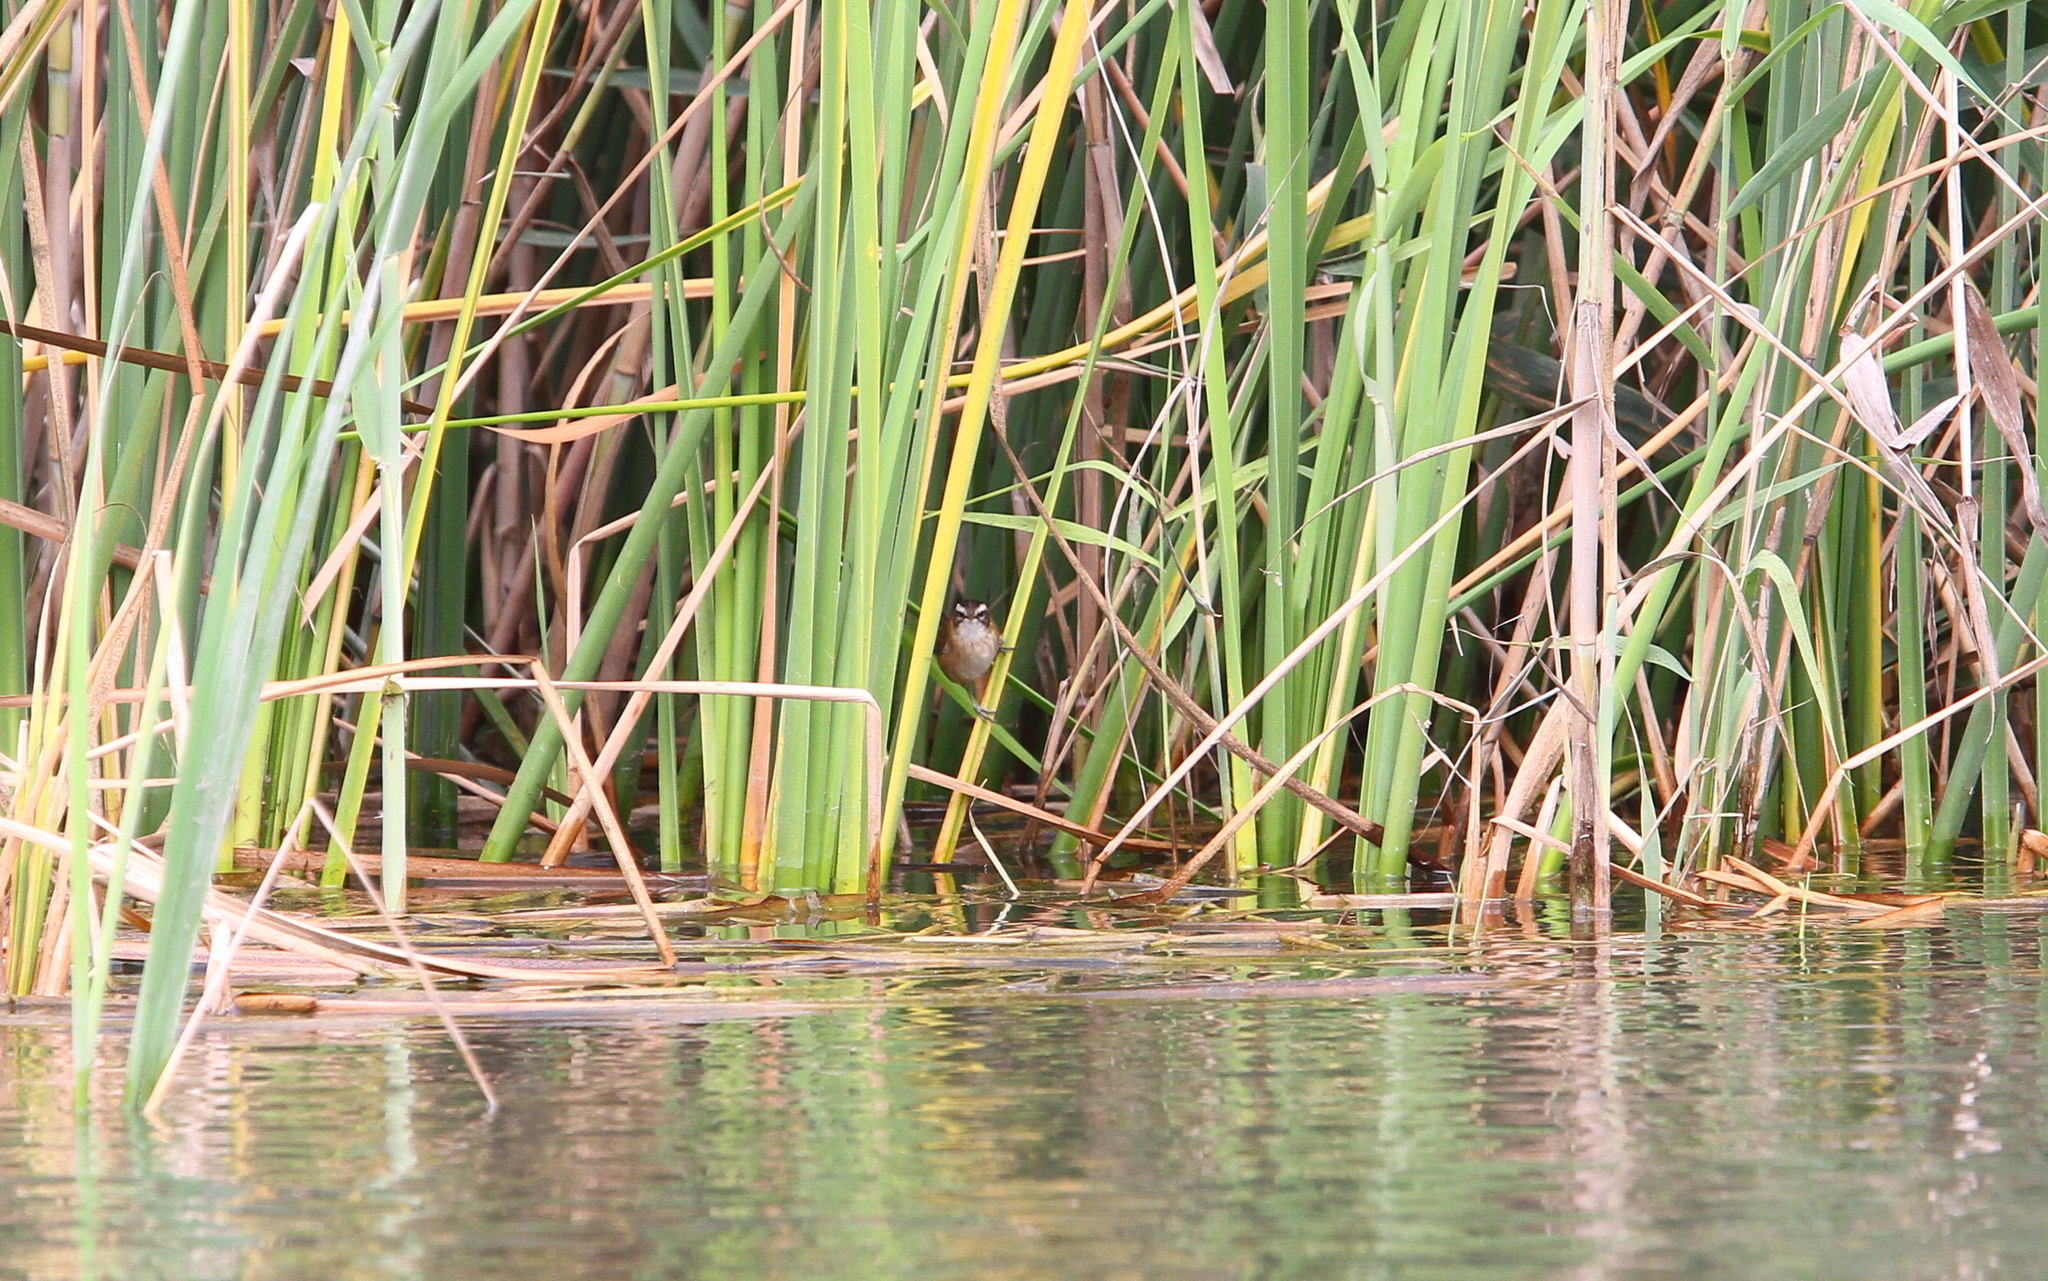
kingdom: Animalia
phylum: Chordata
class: Aves
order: Passeriformes
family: Acrocephalidae
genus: Acrocephalus
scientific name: Acrocephalus melanopogon
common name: Moustached warbler
